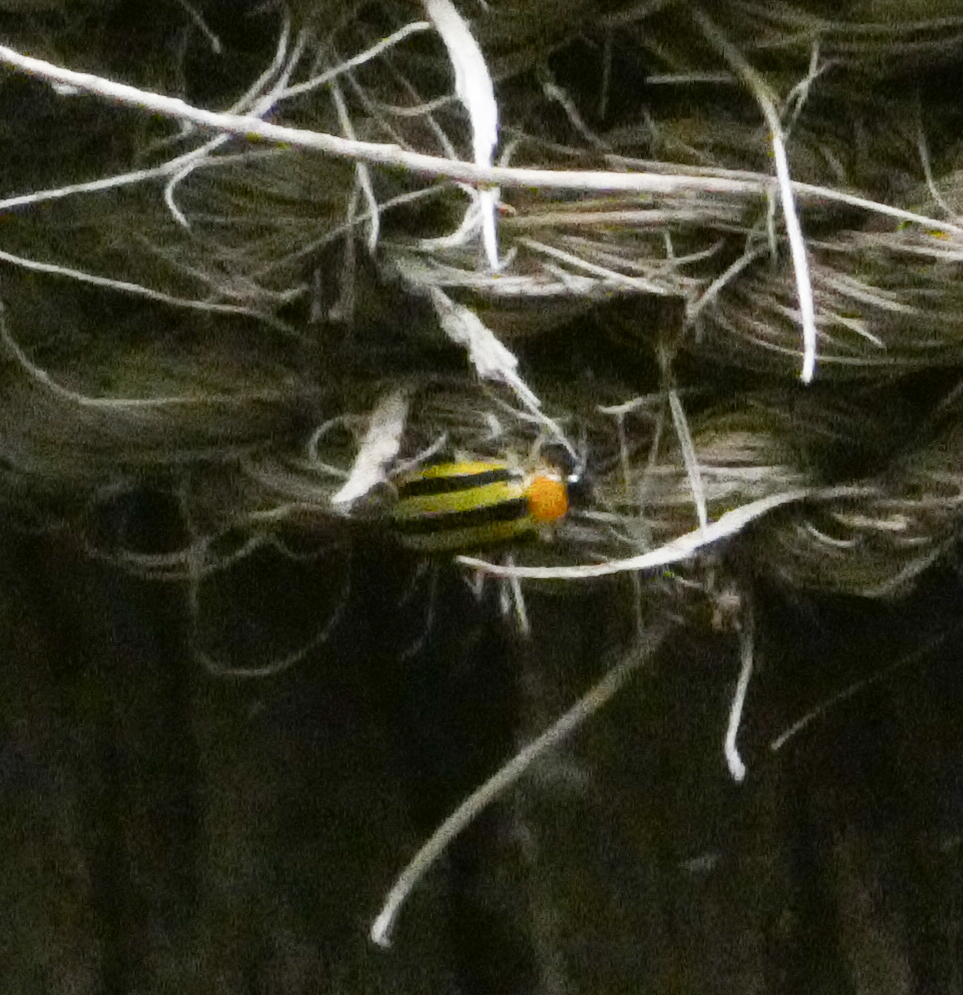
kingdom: Animalia
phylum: Arthropoda
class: Insecta
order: Coleoptera
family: Chrysomelidae
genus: Acalymma
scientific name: Acalymma vittatum
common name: Striped cucumber beetle
